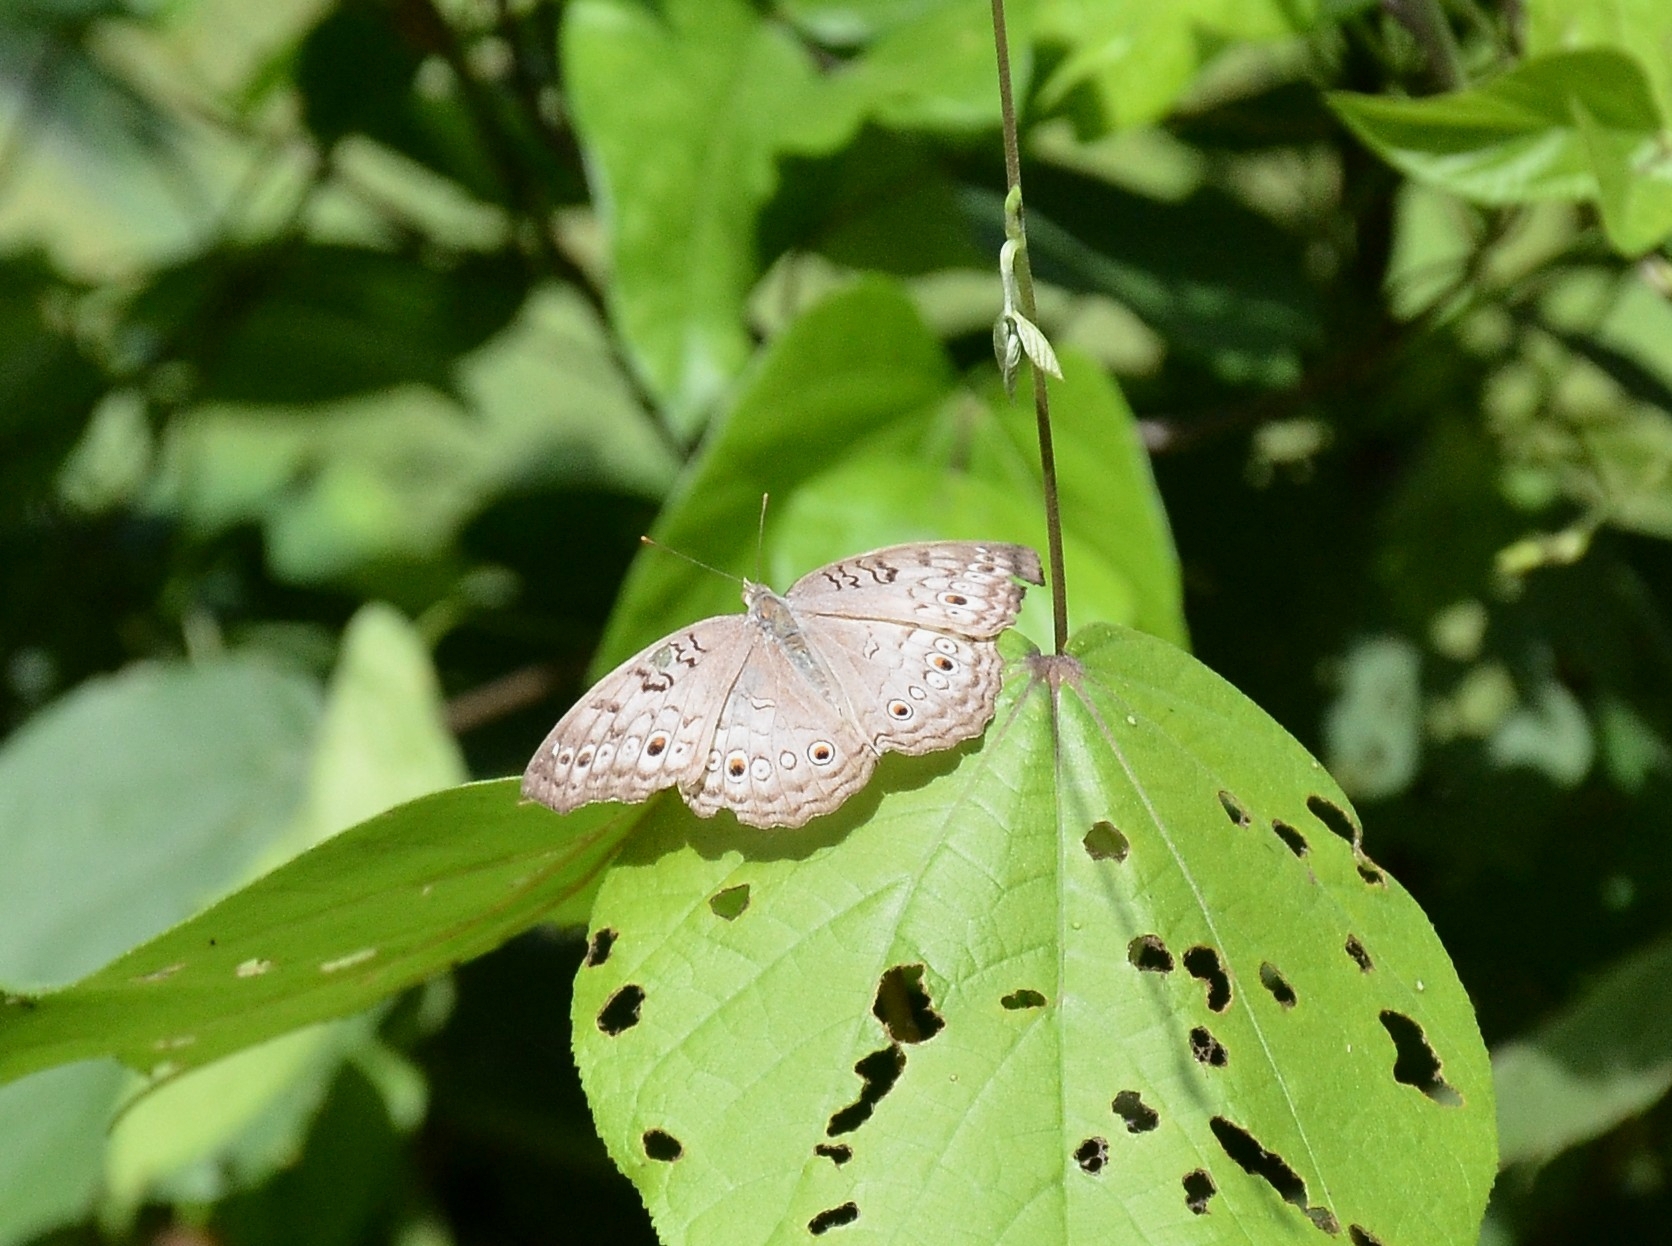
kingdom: Animalia
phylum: Arthropoda
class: Insecta
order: Lepidoptera
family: Nymphalidae
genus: Junonia
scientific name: Junonia atlites
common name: Grey pansy
